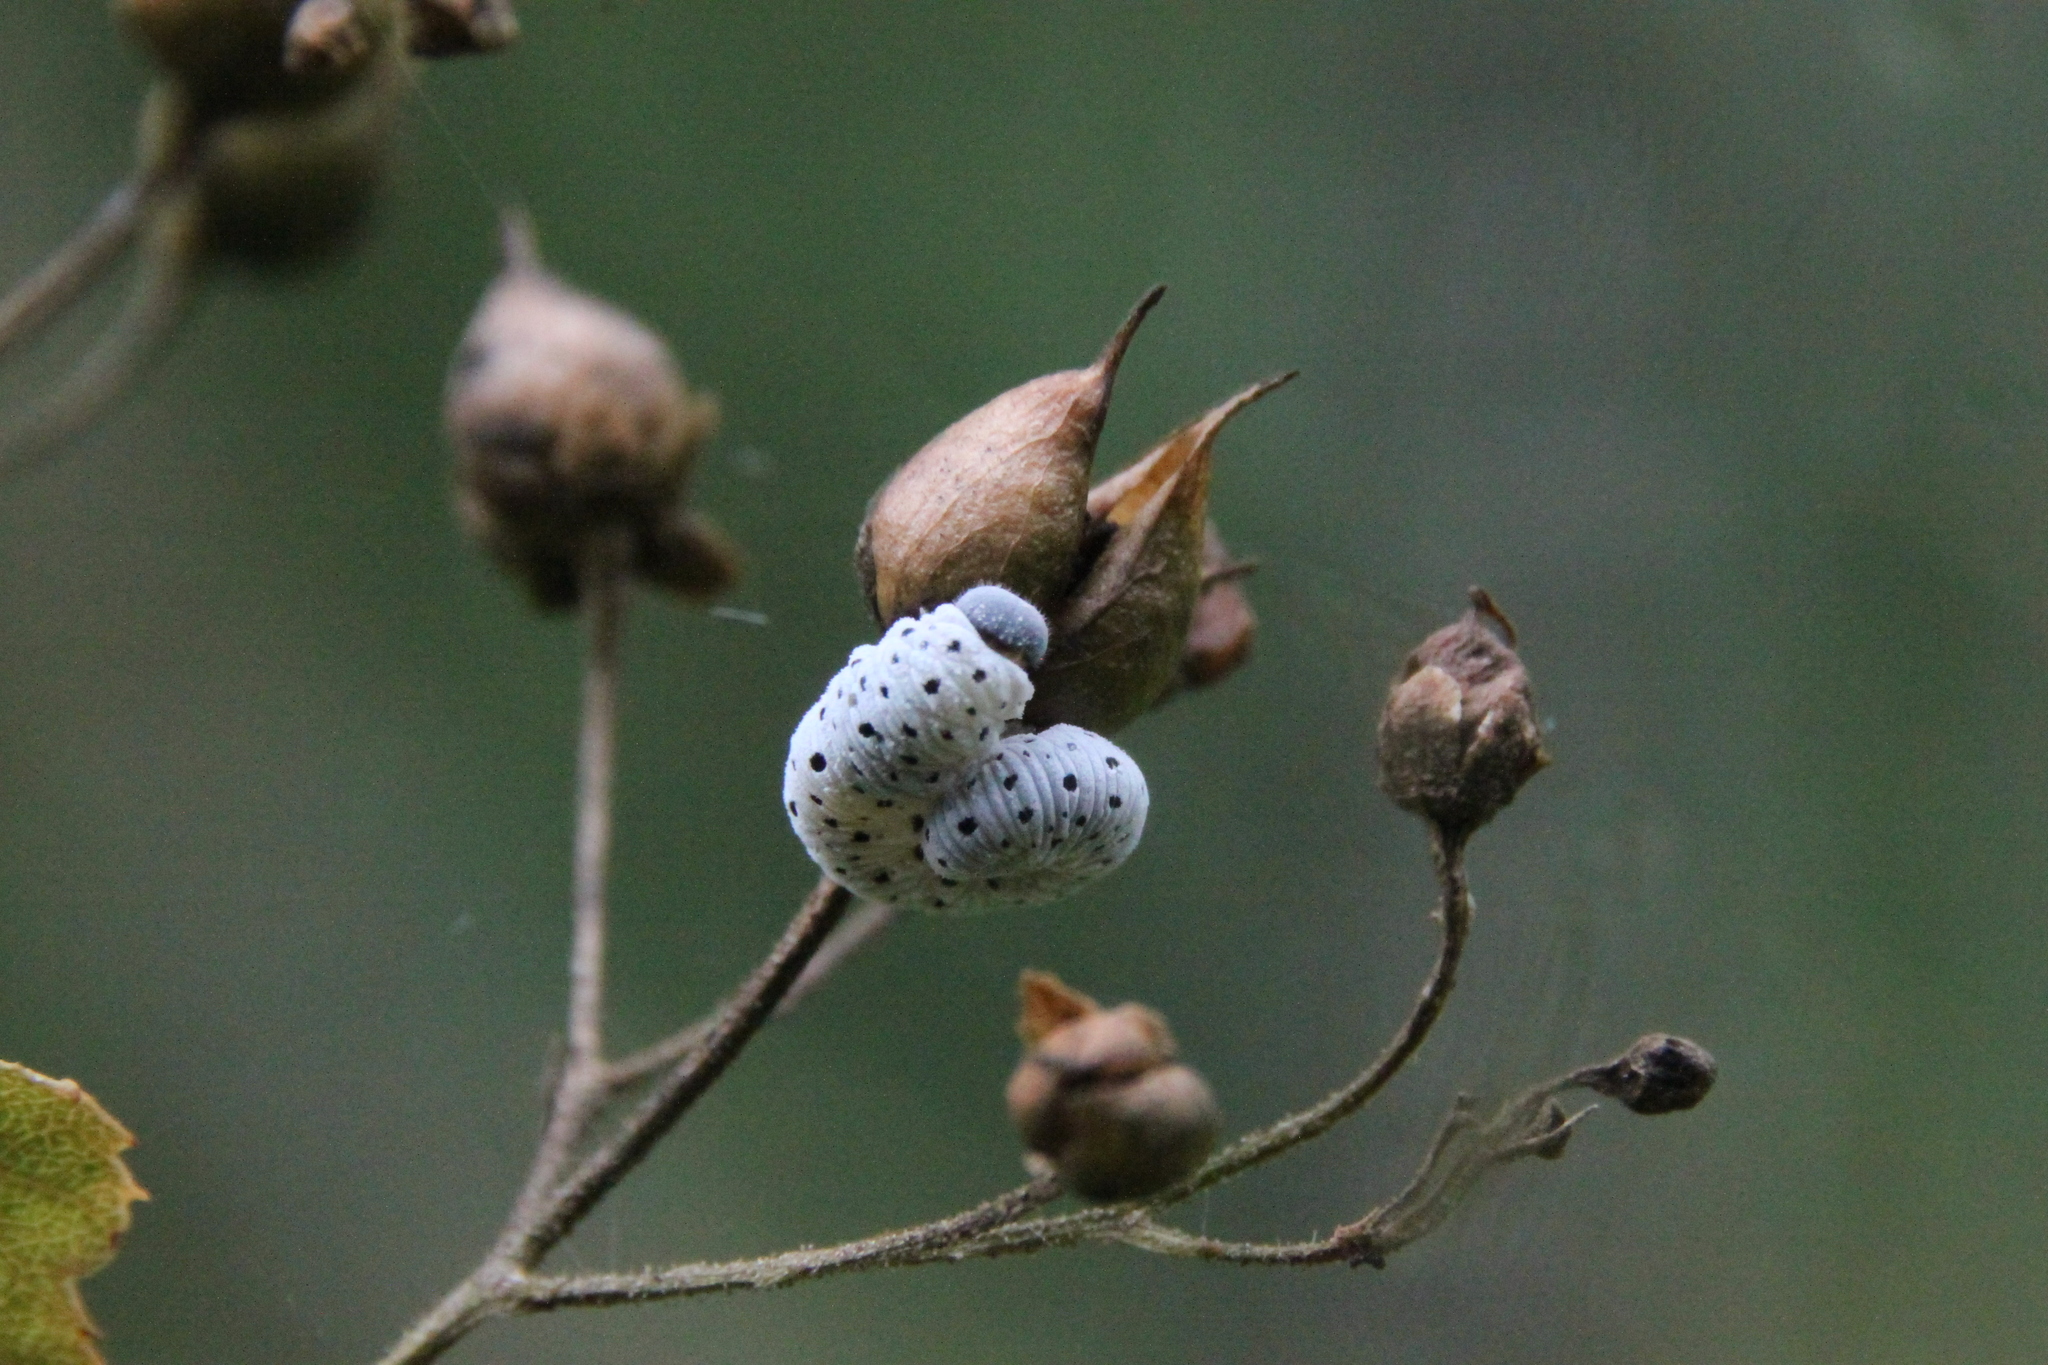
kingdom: Animalia
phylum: Arthropoda
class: Insecta
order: Hymenoptera
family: Tenthredinidae
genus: Tenthredo
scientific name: Tenthredo scrophulariae
